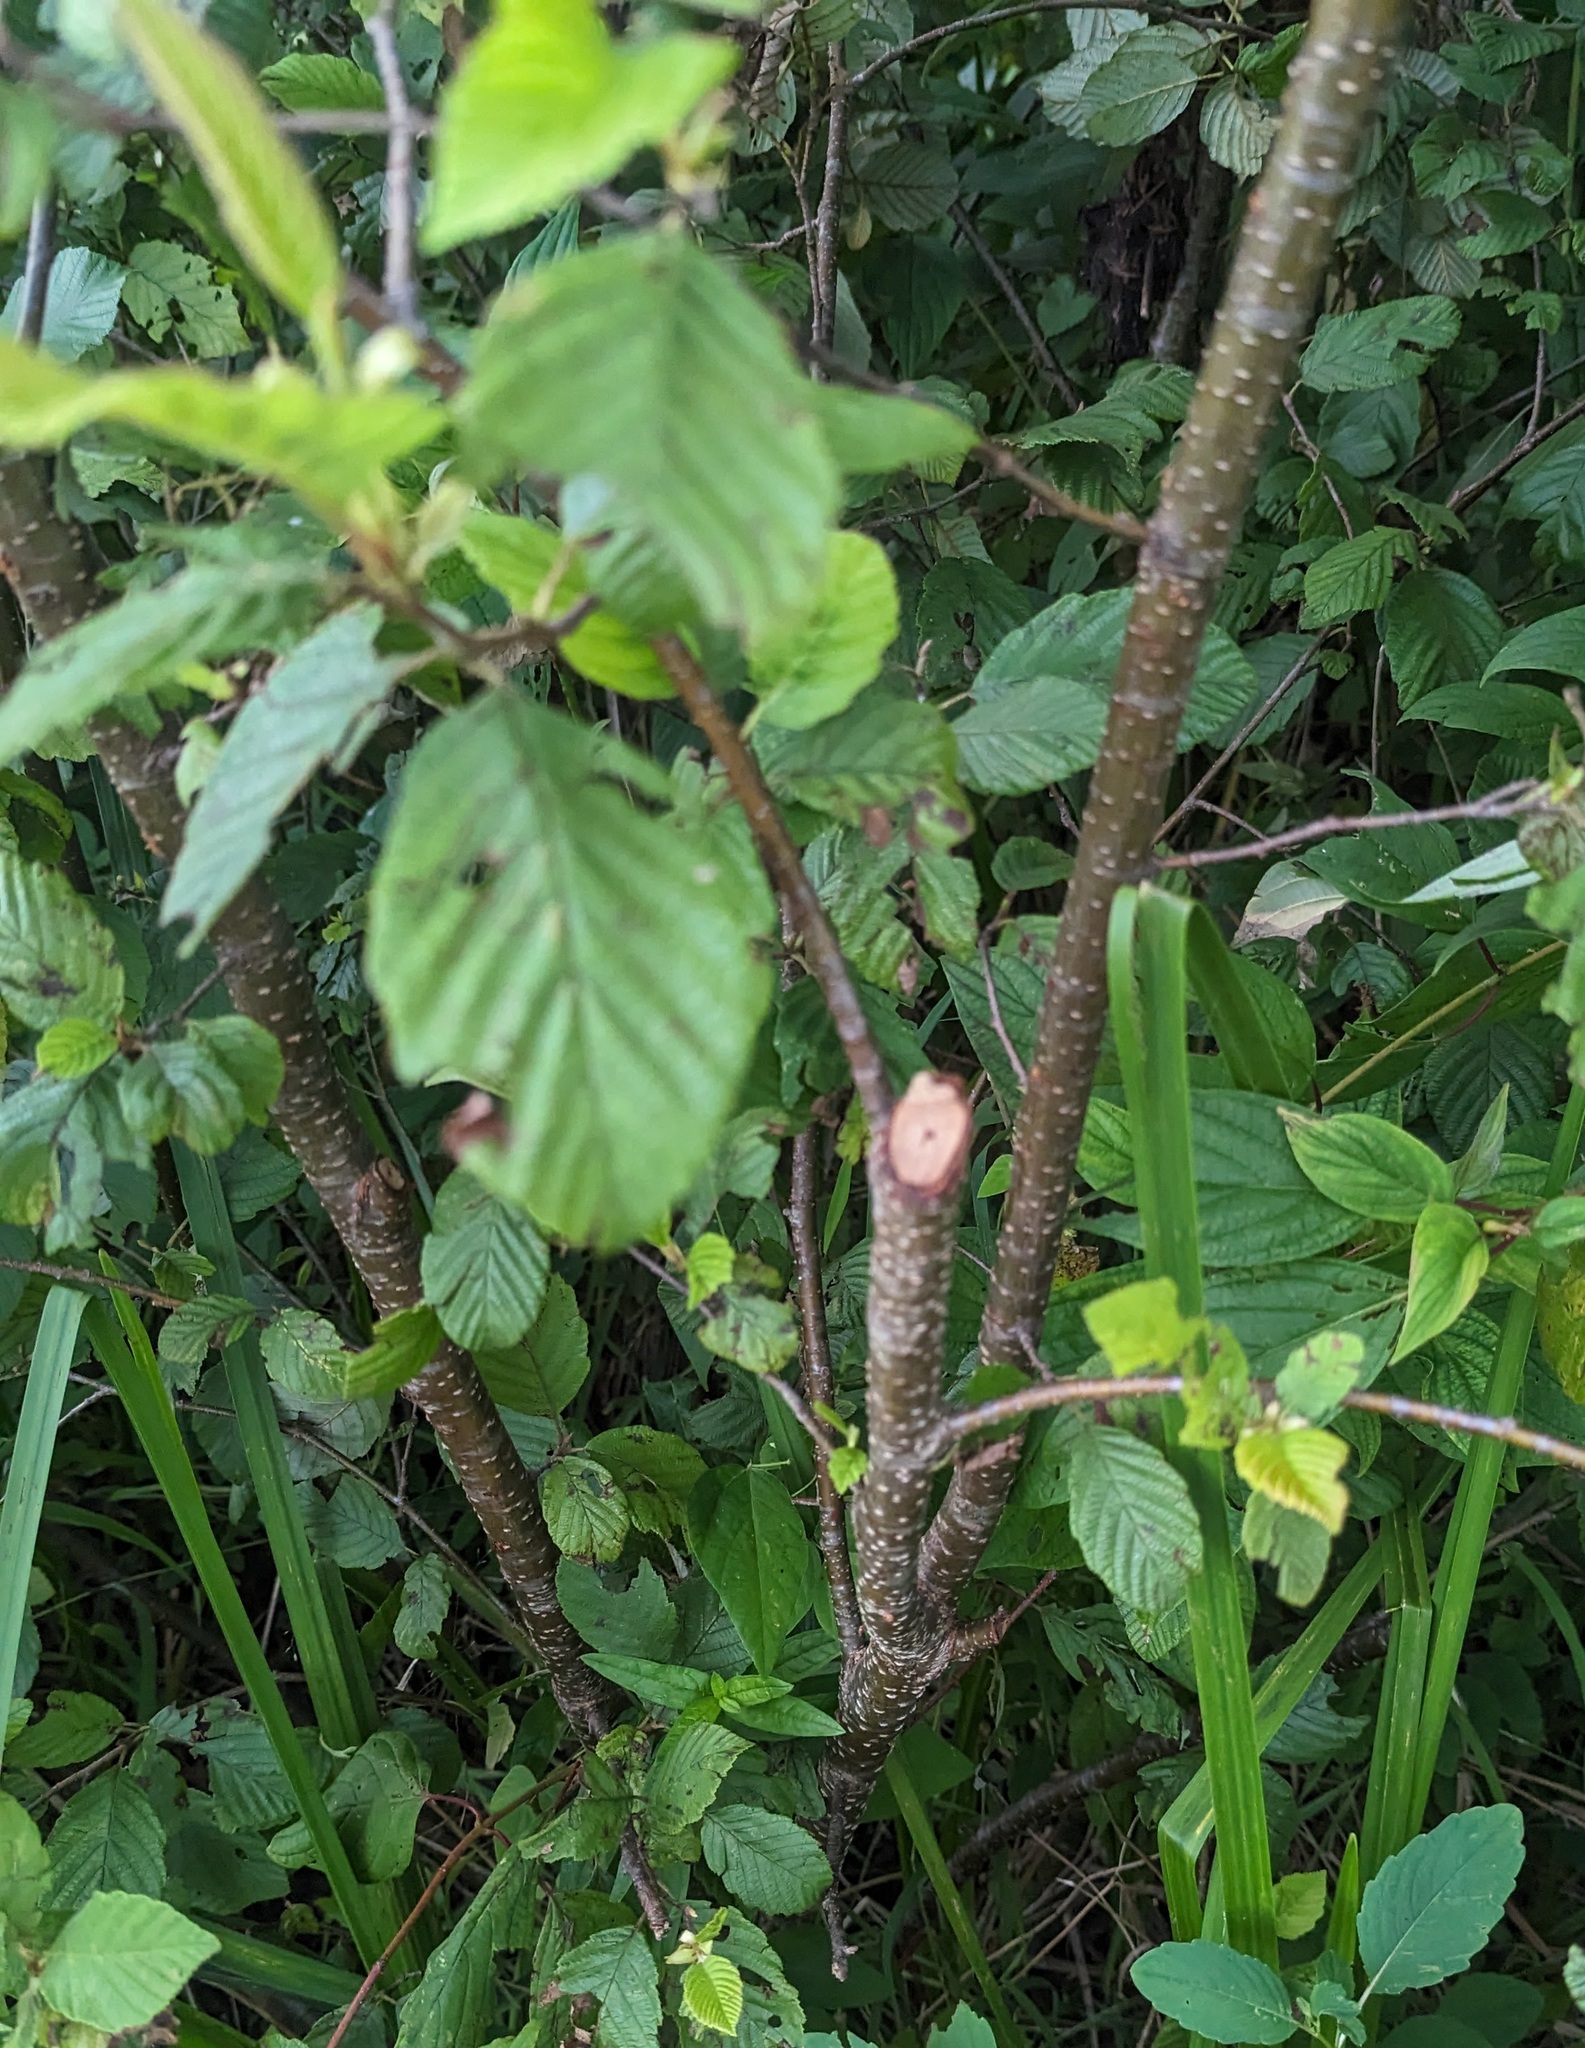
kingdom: Plantae
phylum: Tracheophyta
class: Magnoliopsida
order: Fagales
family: Betulaceae
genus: Alnus
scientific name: Alnus incana
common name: Grey alder
